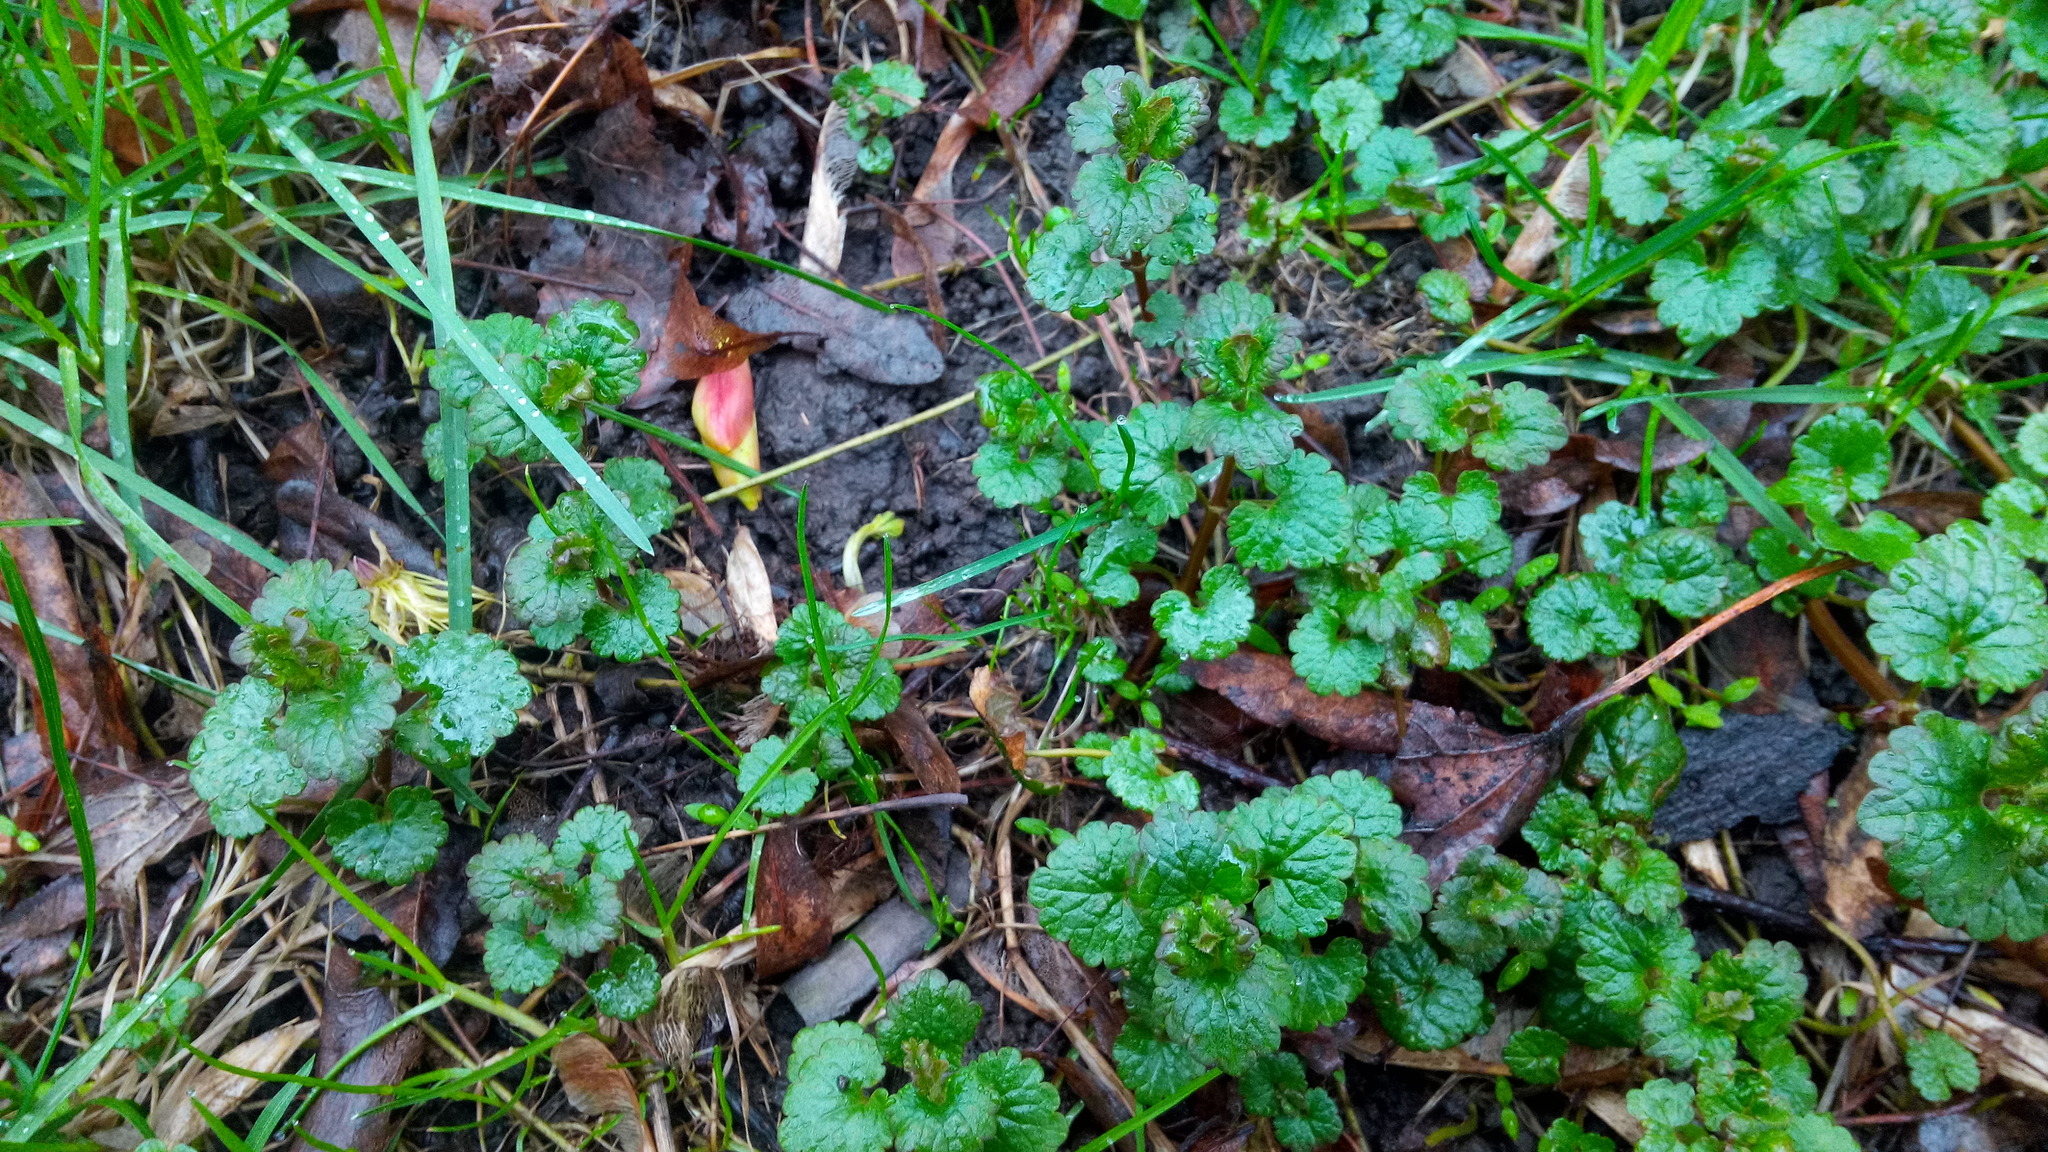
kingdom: Plantae
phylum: Tracheophyta
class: Magnoliopsida
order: Lamiales
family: Lamiaceae
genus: Glechoma
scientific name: Glechoma hederacea
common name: Ground ivy
